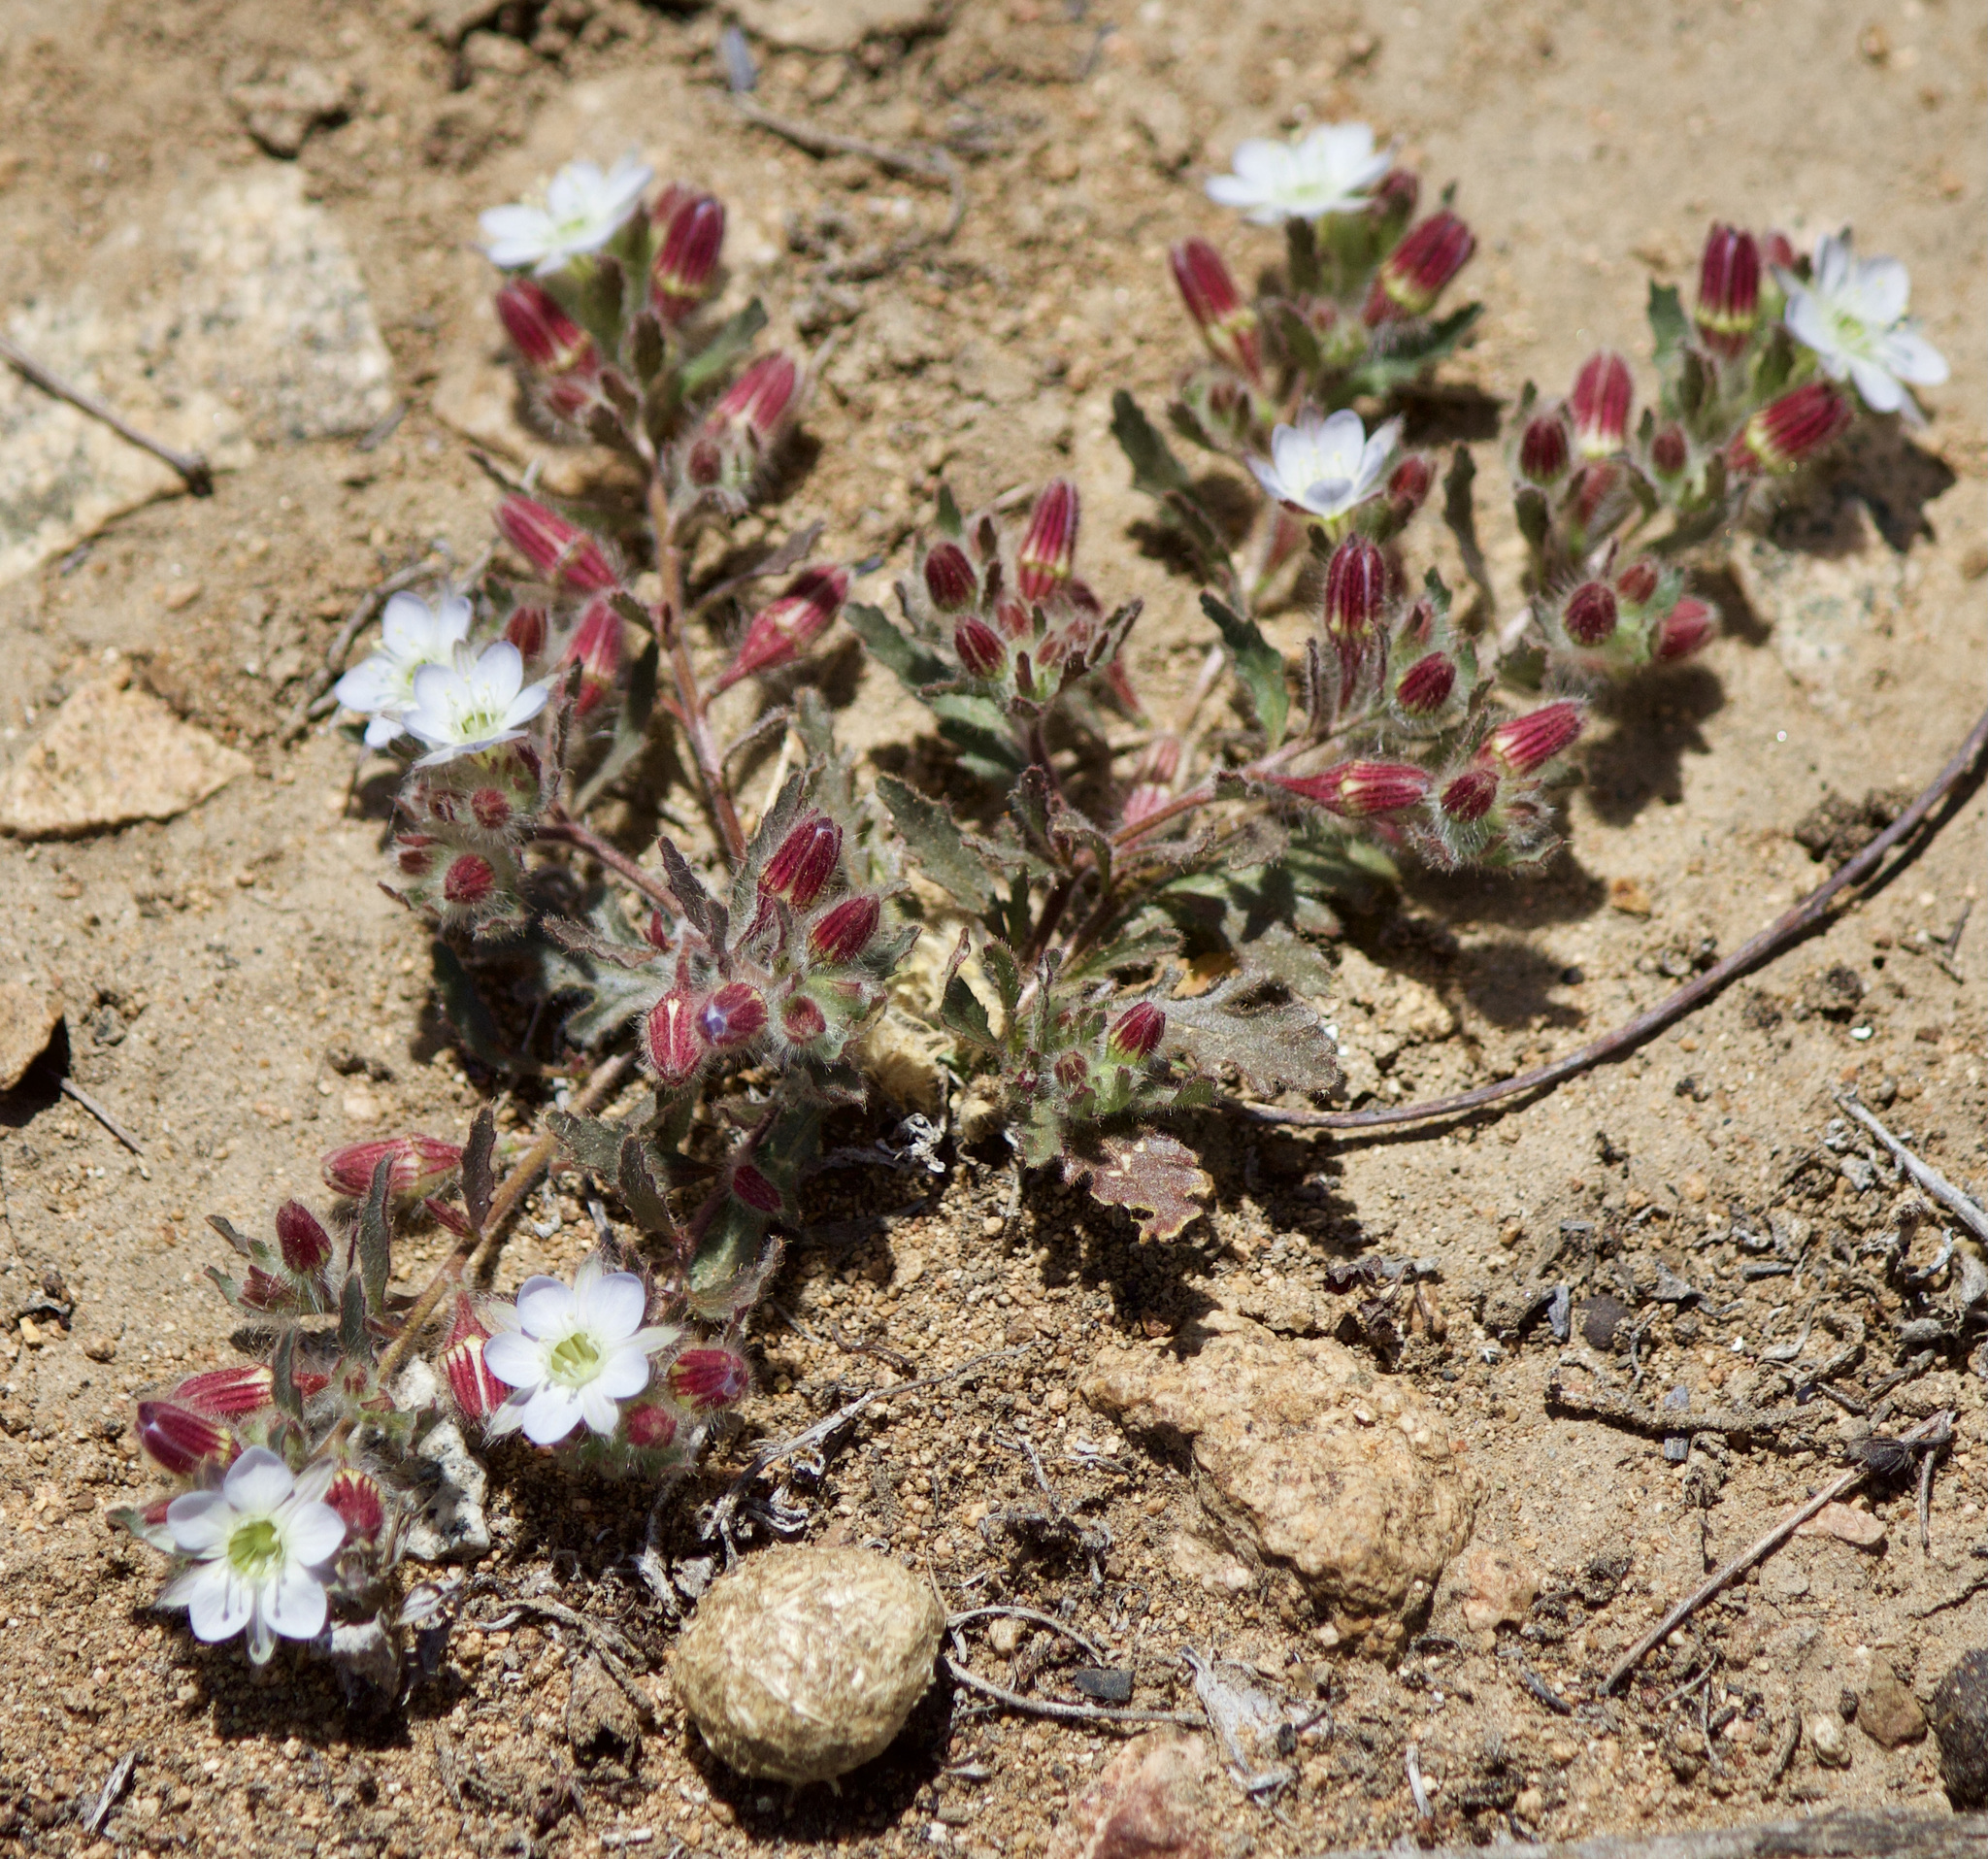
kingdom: Plantae
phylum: Tracheophyta
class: Magnoliopsida
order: Malpighiales
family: Malesherbiaceae
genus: Malesherbia
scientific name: Malesherbia humilis
